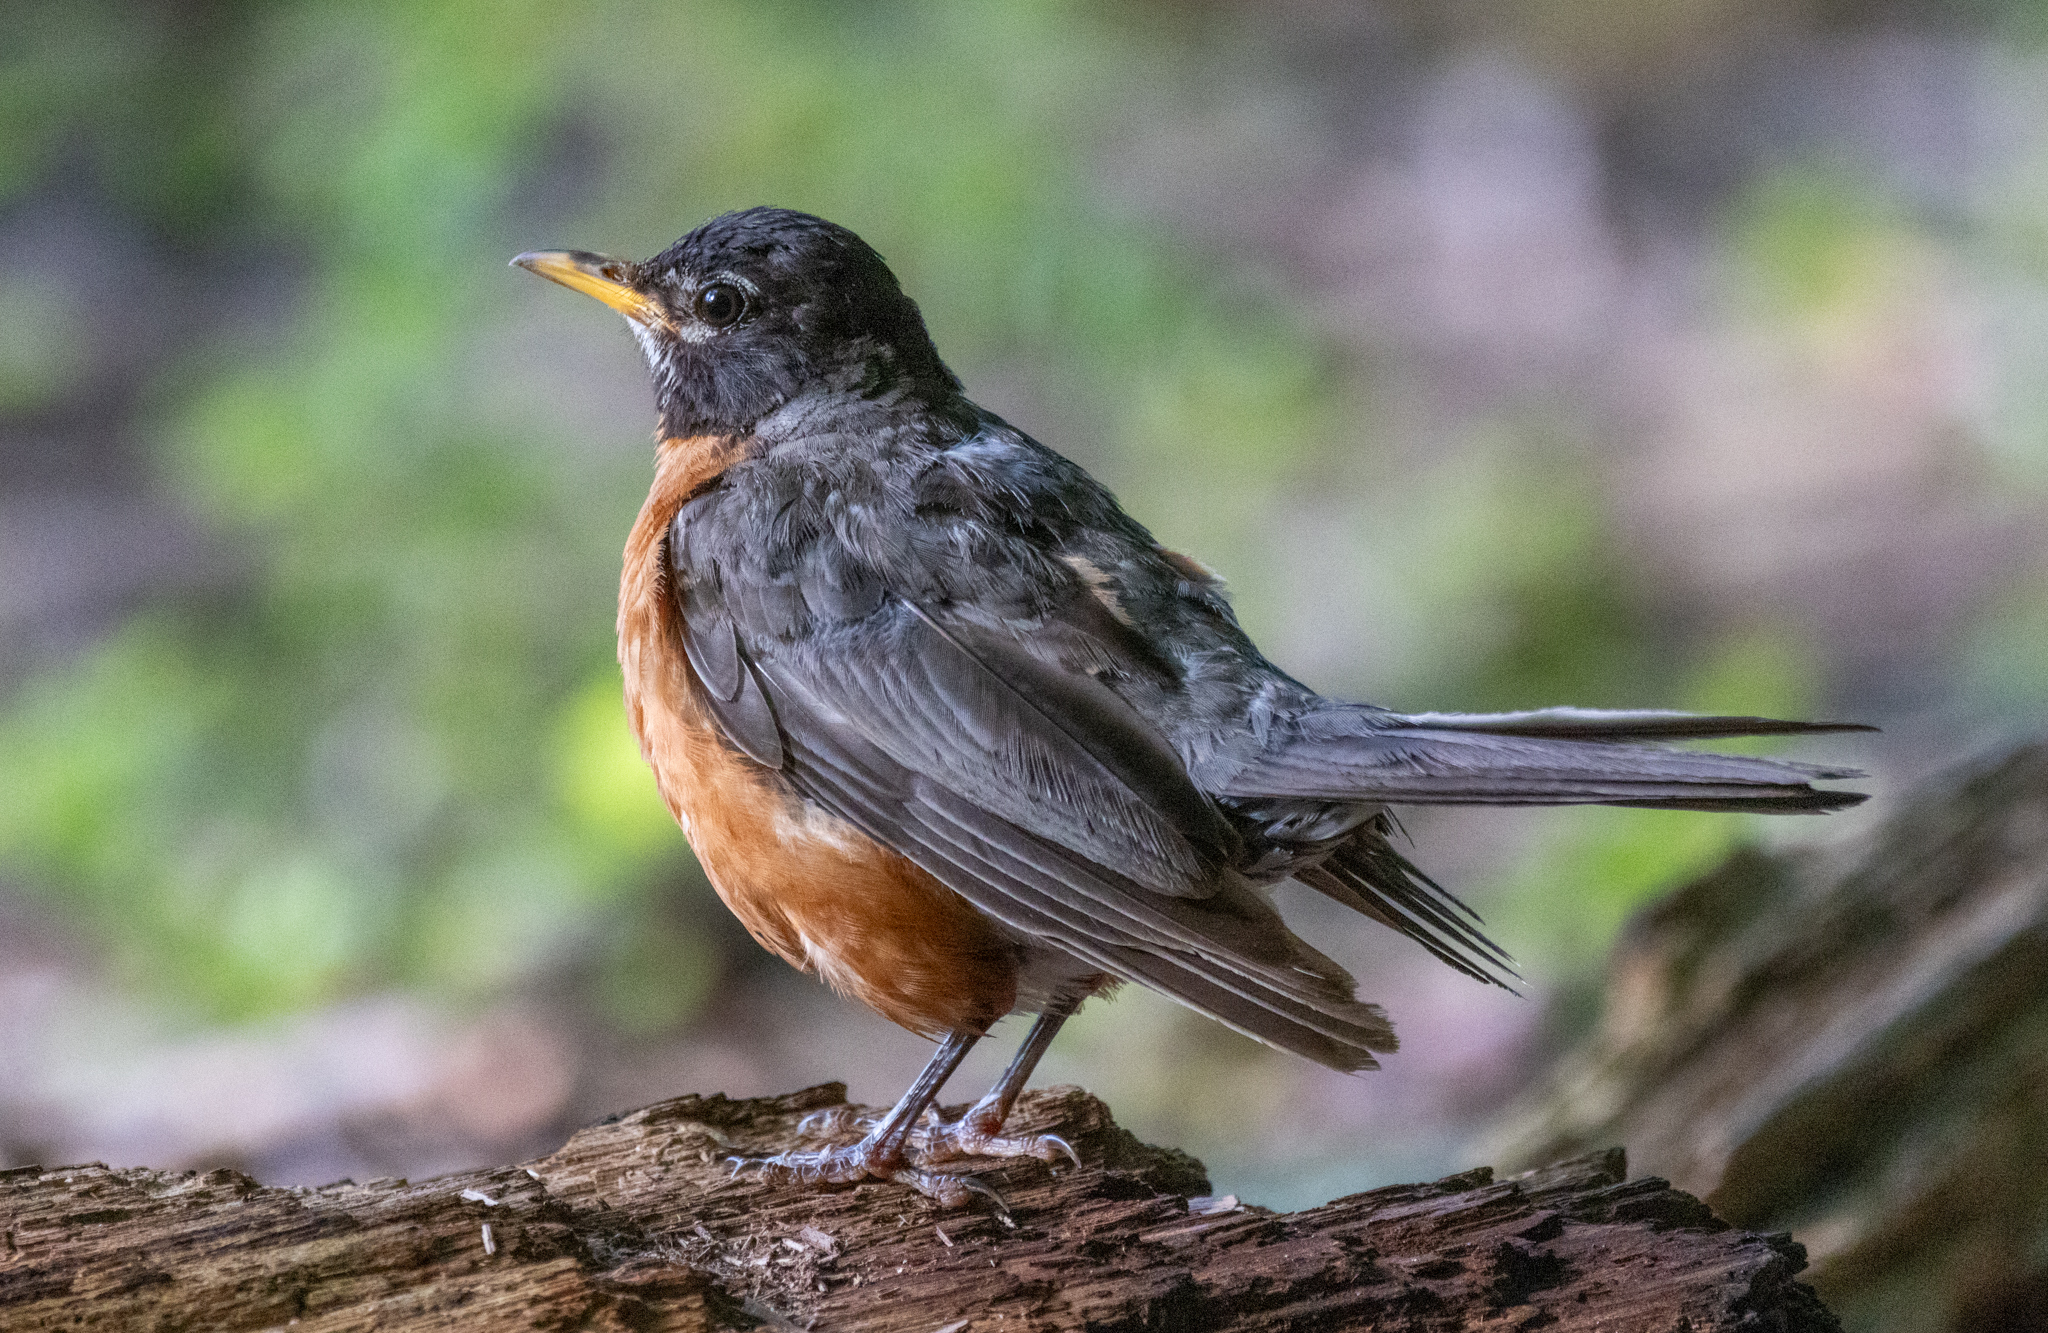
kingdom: Animalia
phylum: Chordata
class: Aves
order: Passeriformes
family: Turdidae
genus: Turdus
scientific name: Turdus migratorius
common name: American robin
